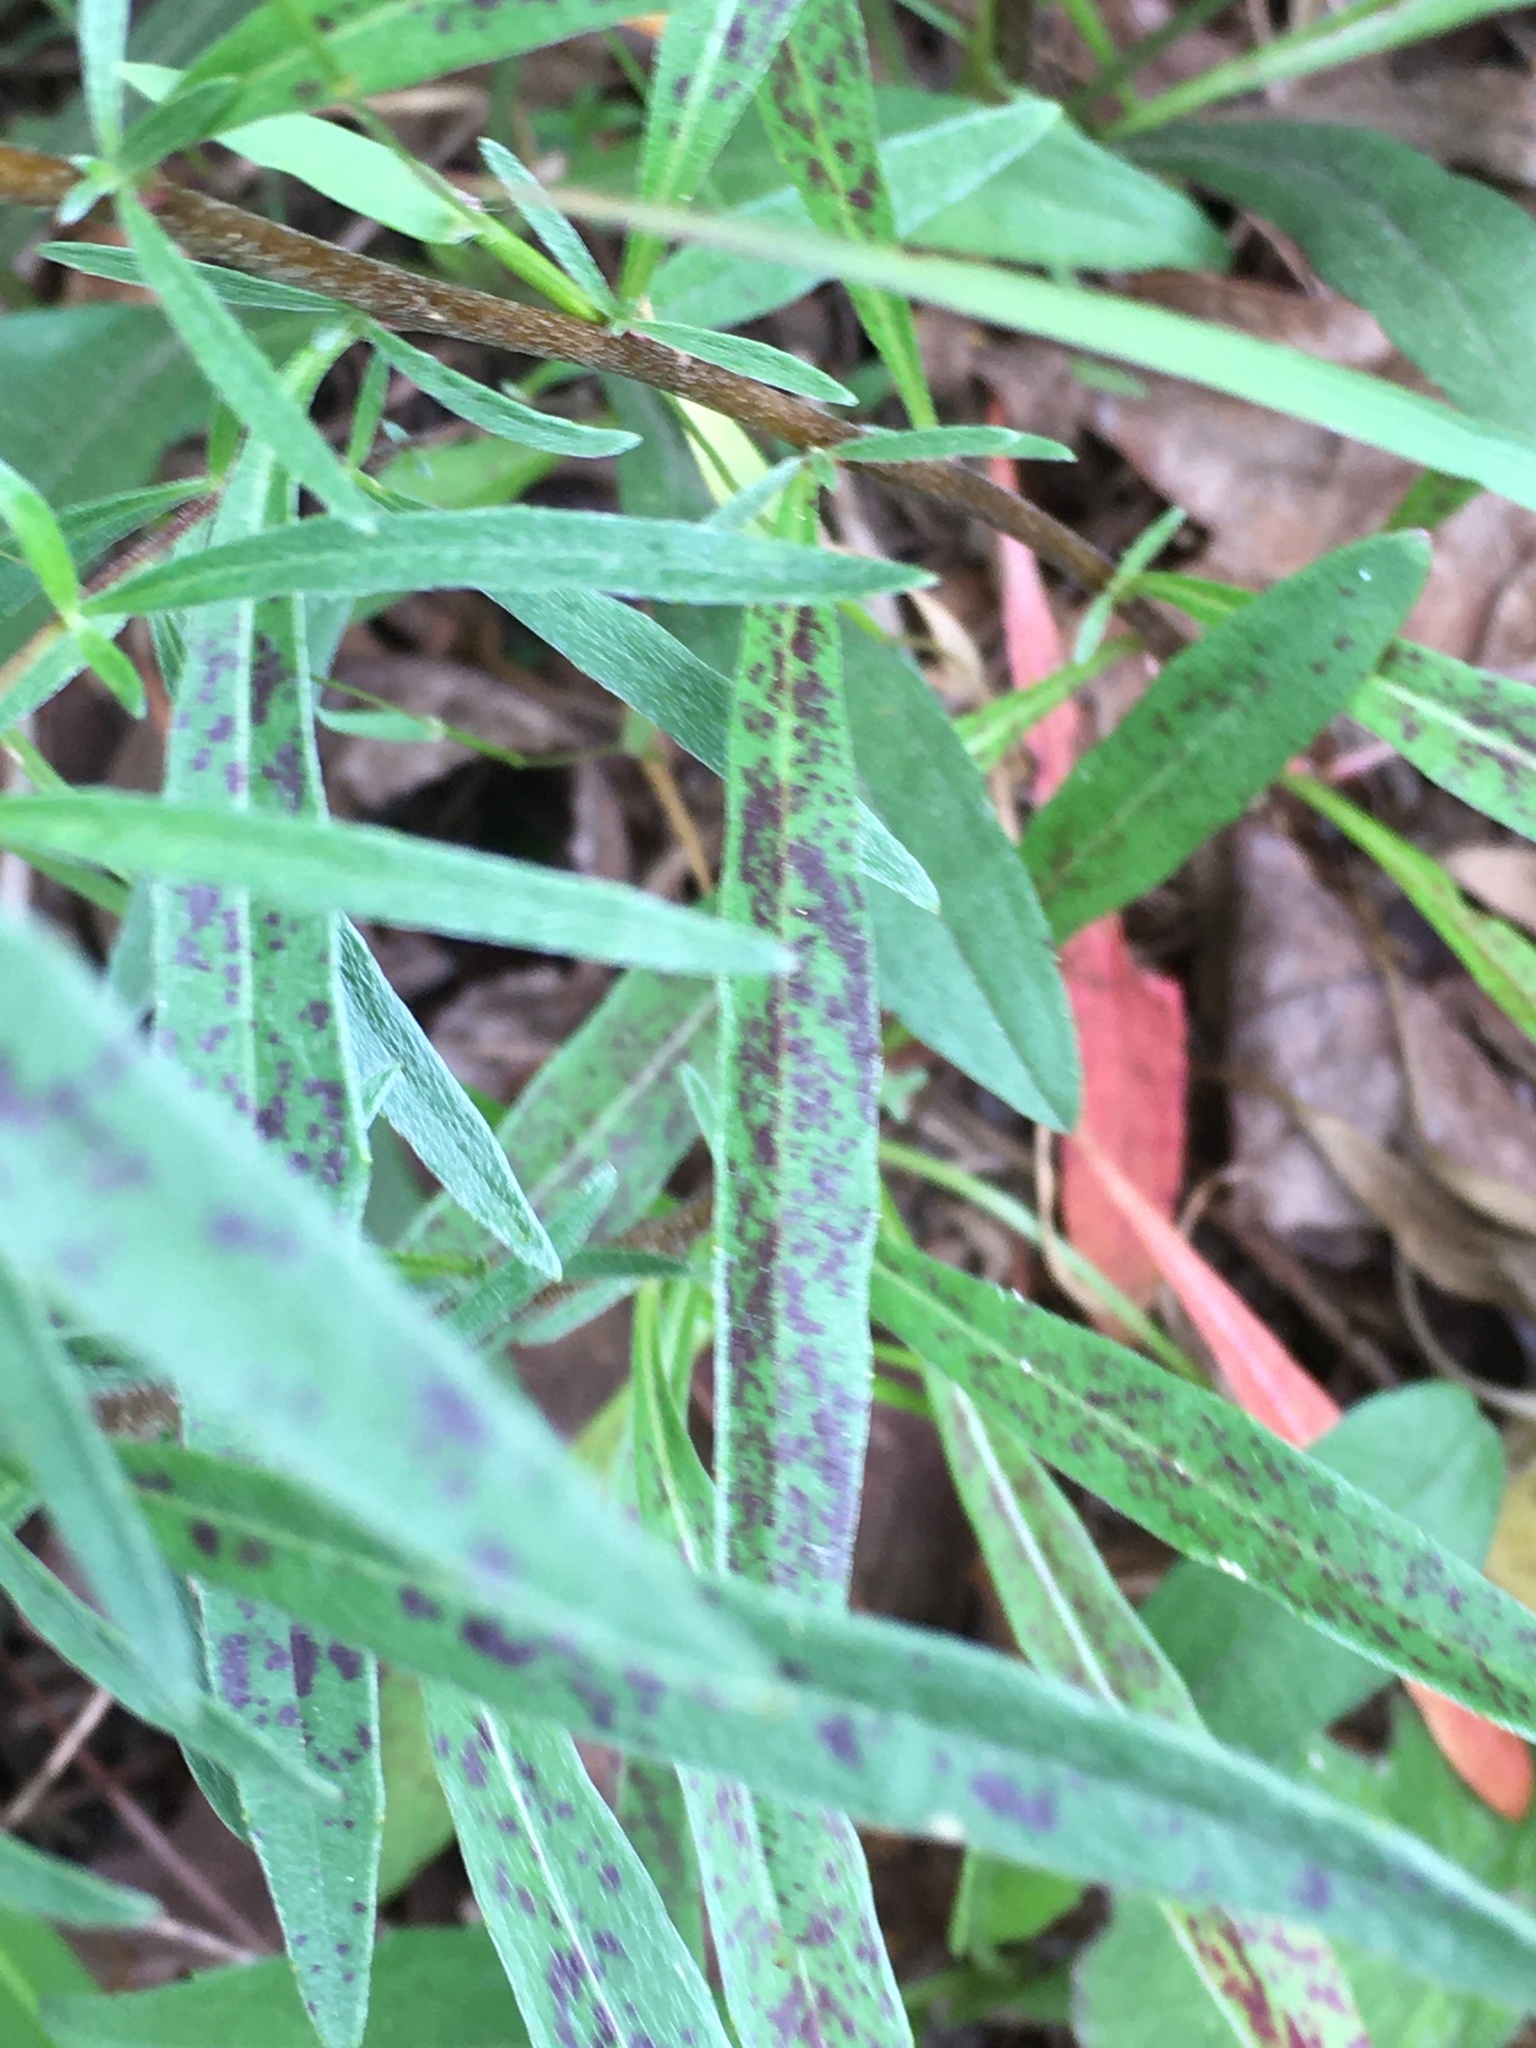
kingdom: Plantae
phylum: Tracheophyta
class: Magnoliopsida
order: Myrtales
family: Onagraceae
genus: Oenothera
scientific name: Oenothera fruticosa
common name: Southern sundrops
